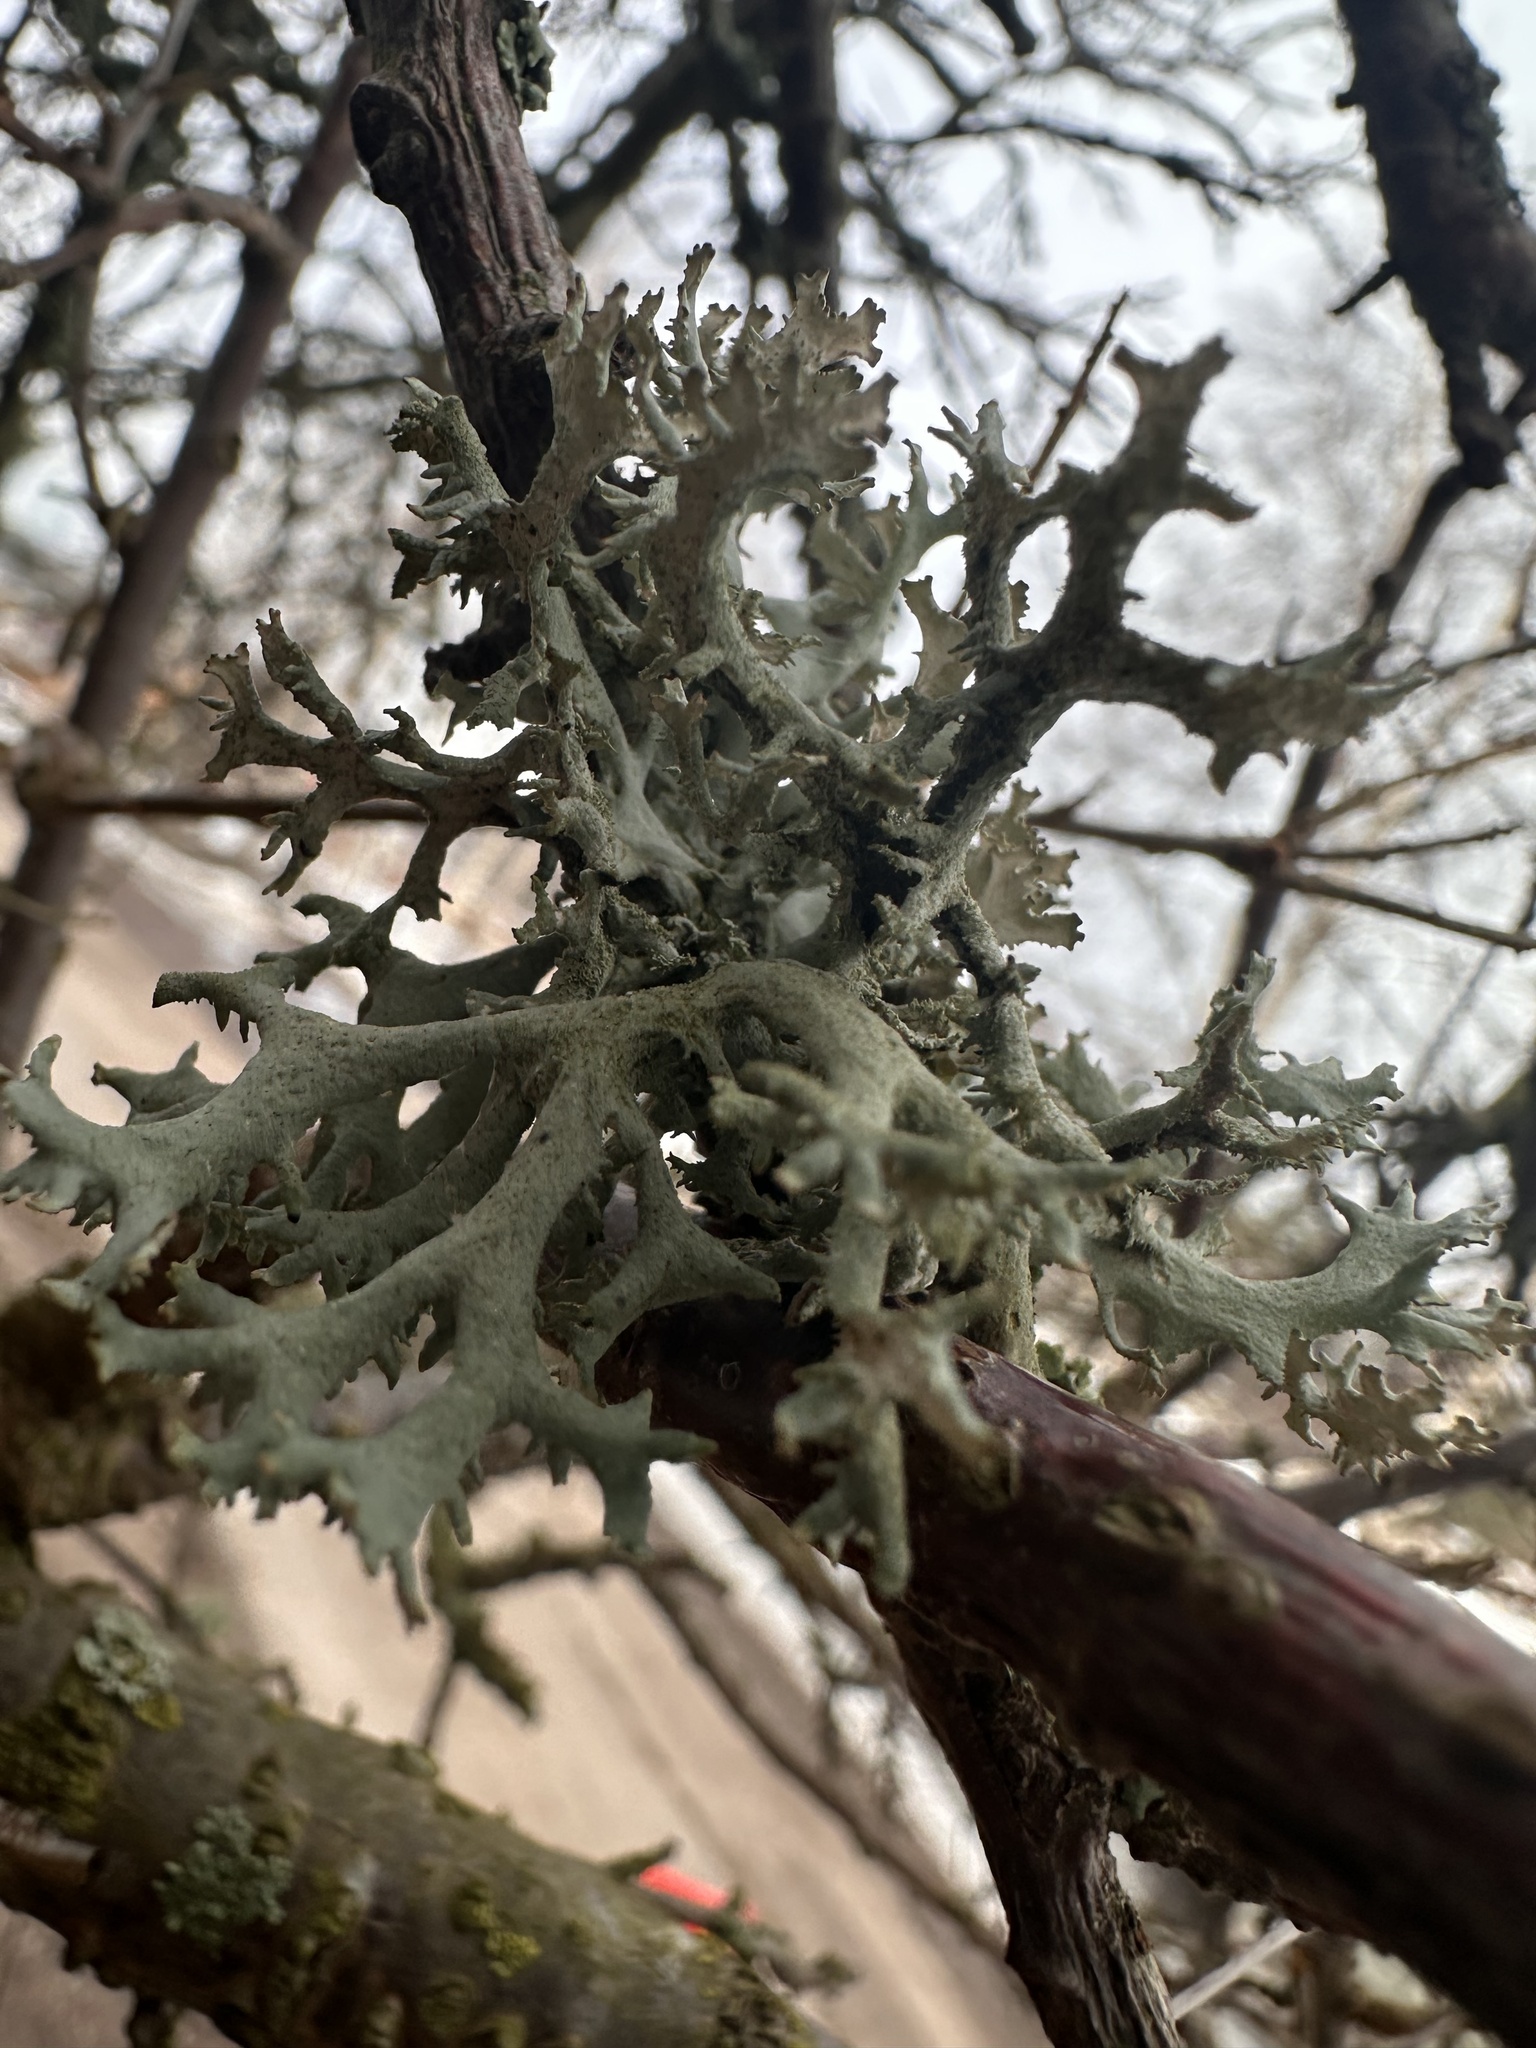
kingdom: Fungi
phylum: Ascomycota
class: Lecanoromycetes
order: Lecanorales
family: Parmeliaceae
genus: Pseudevernia
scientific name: Pseudevernia furfuracea
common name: Tree moss
